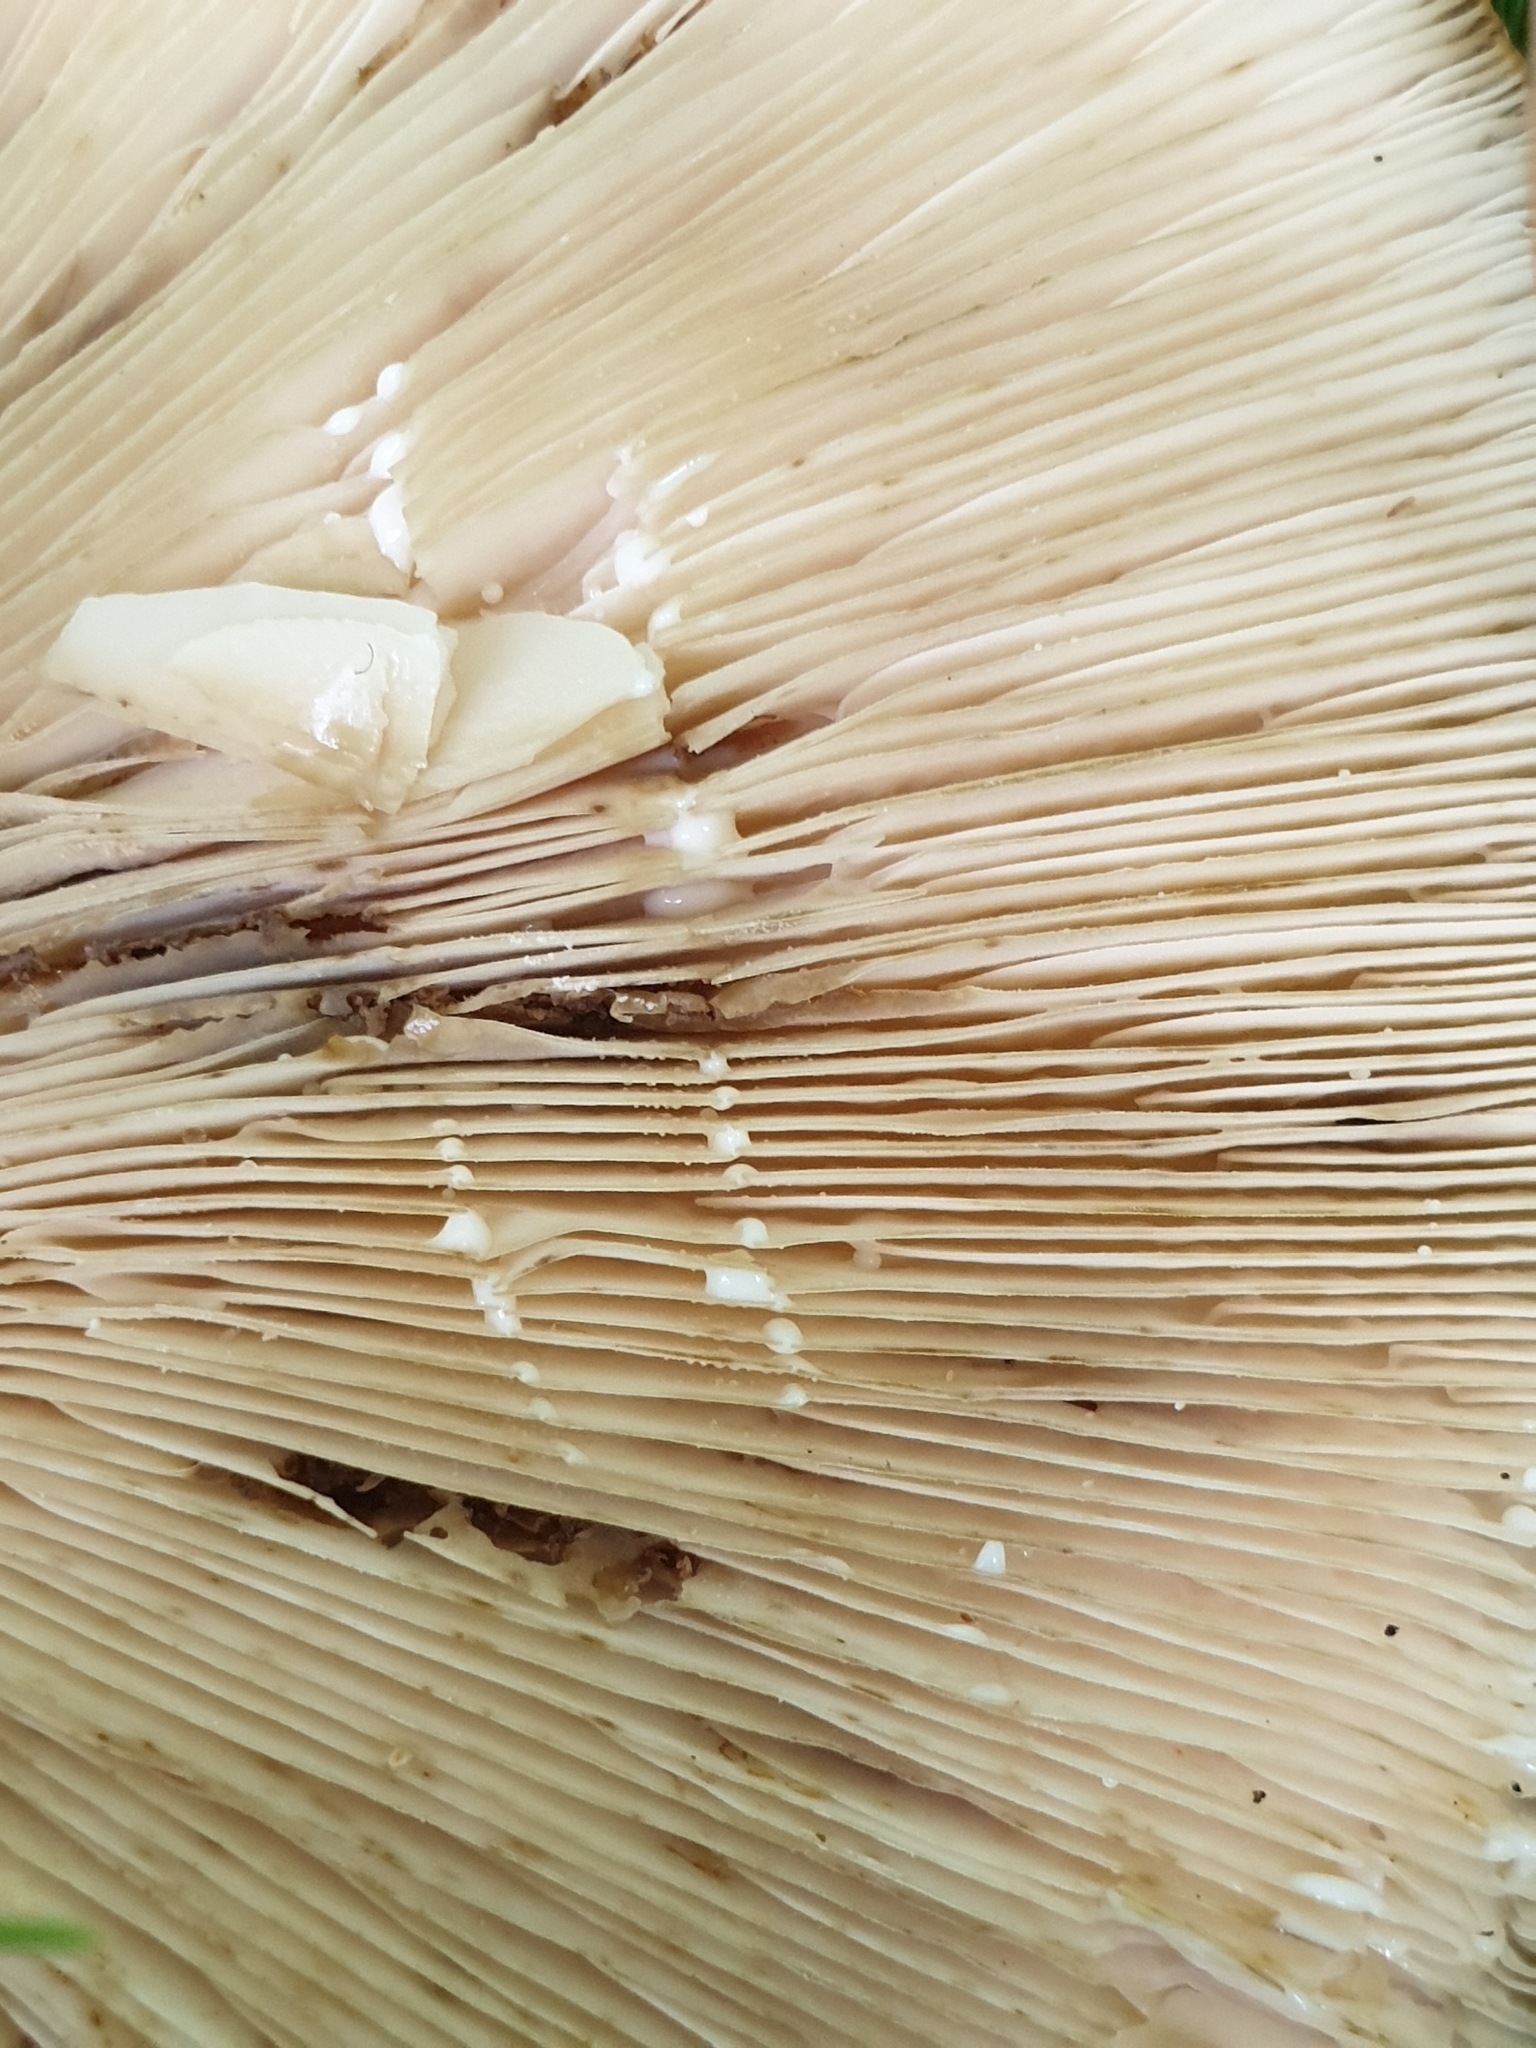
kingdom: Fungi
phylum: Basidiomycota
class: Agaricomycetes
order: Russulales
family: Russulaceae
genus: Lactarius
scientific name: Lactarius turpis
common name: Ugly milk-cap
